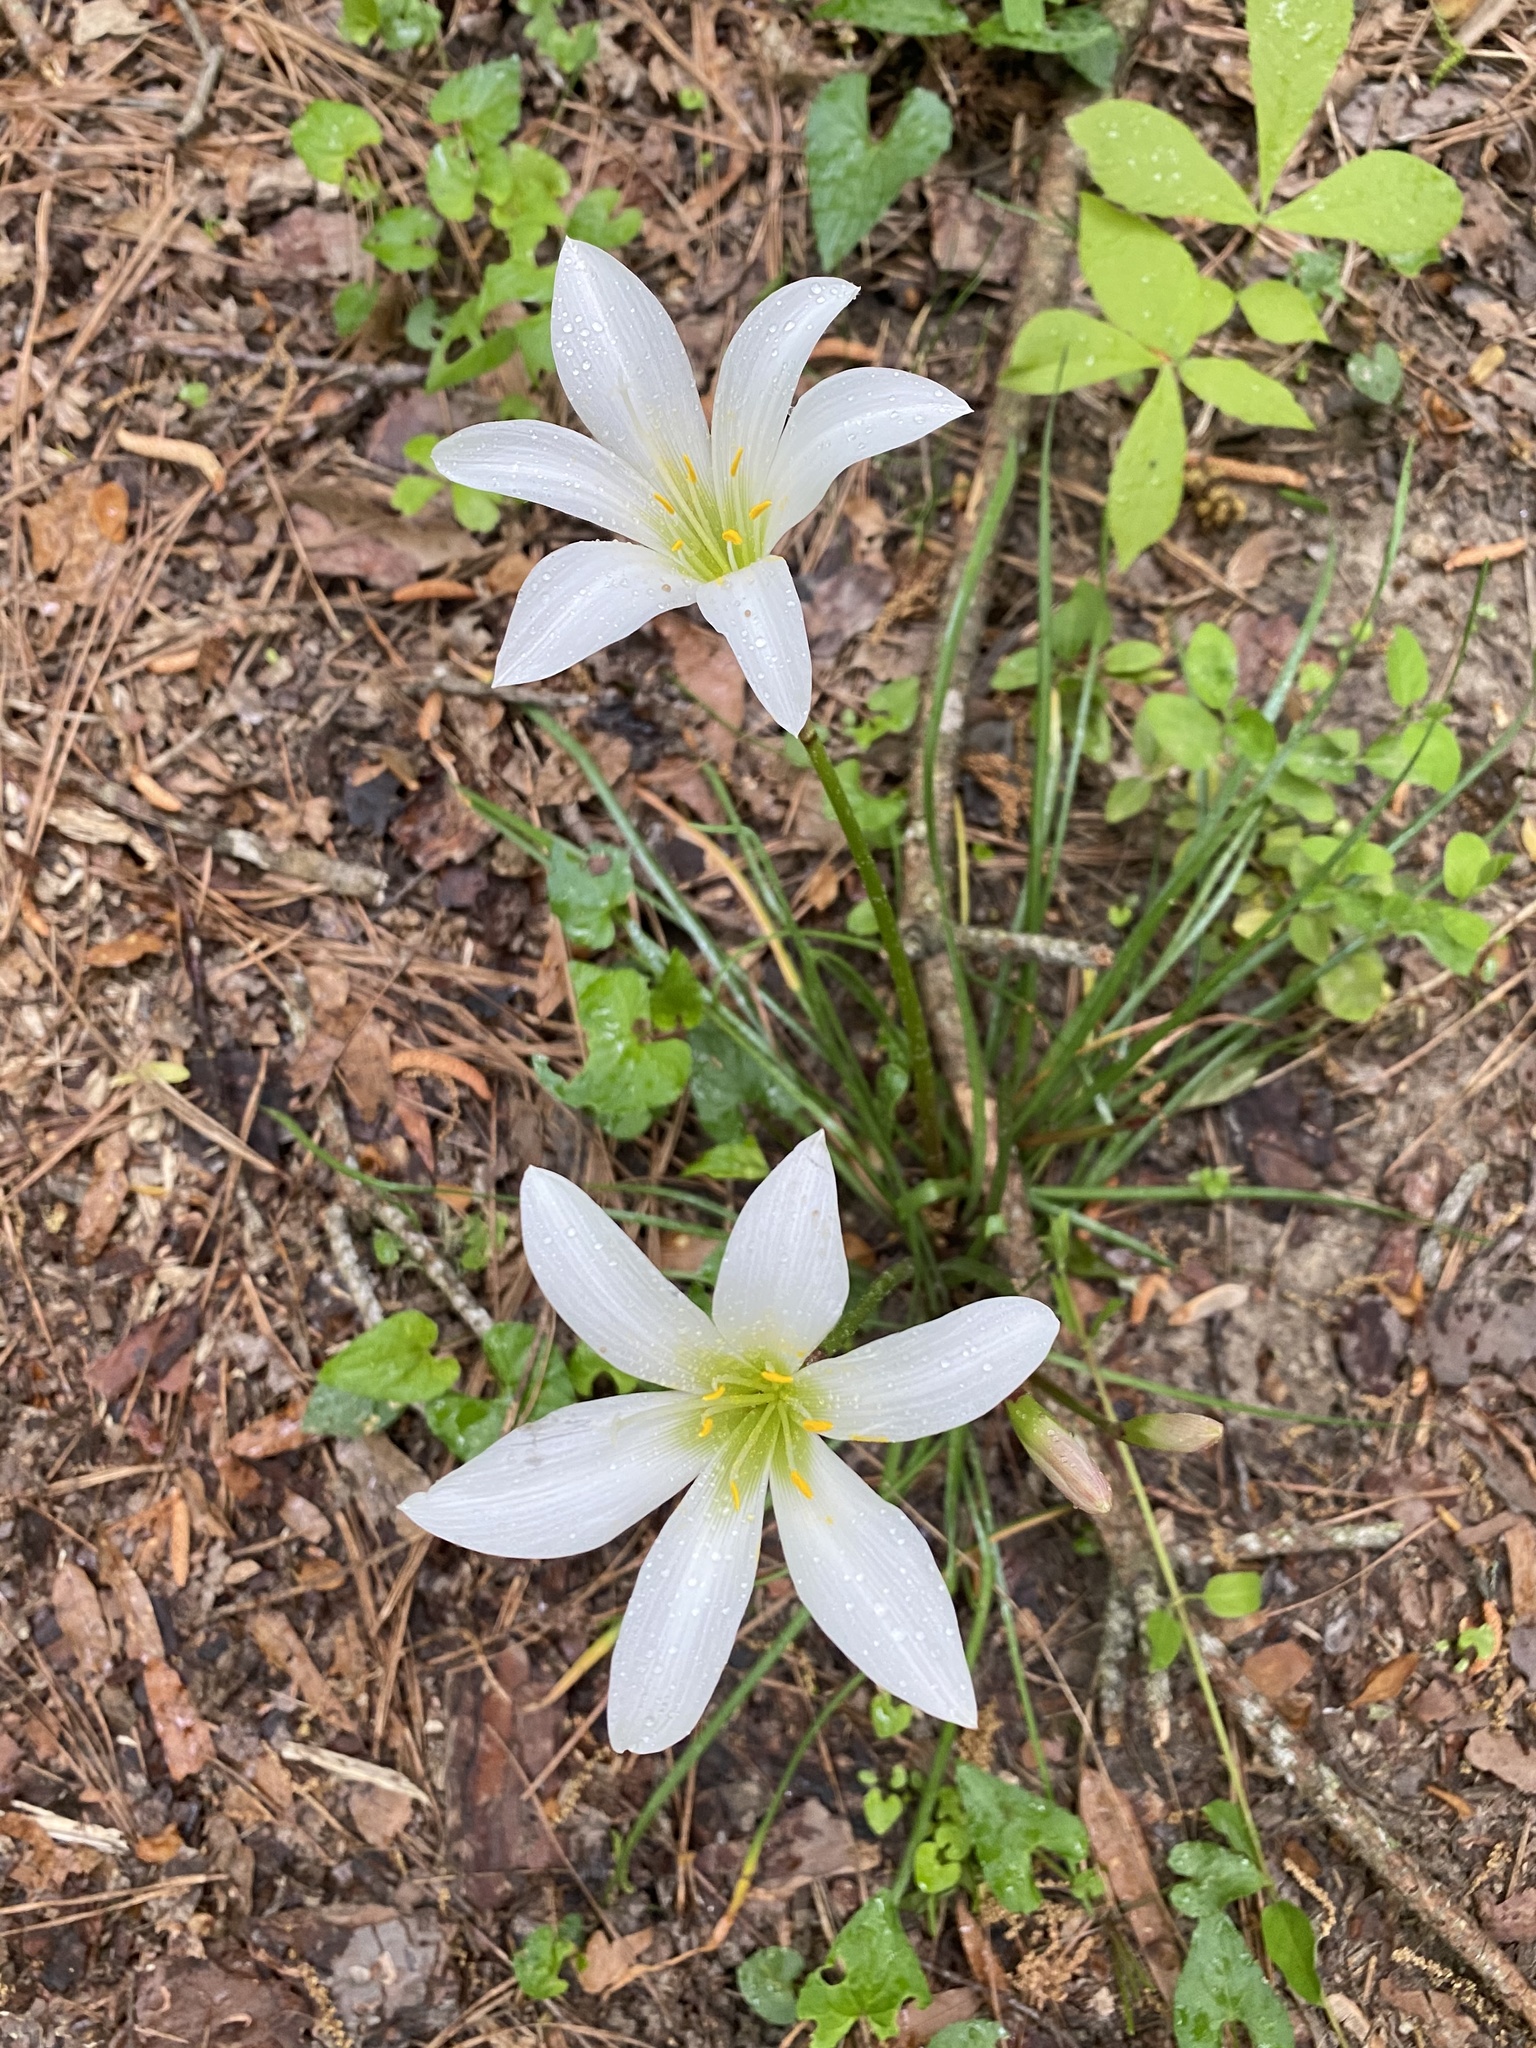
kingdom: Plantae
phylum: Tracheophyta
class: Liliopsida
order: Asparagales
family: Amaryllidaceae
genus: Zephyranthes
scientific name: Zephyranthes atamasco
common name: Atamasco lily
